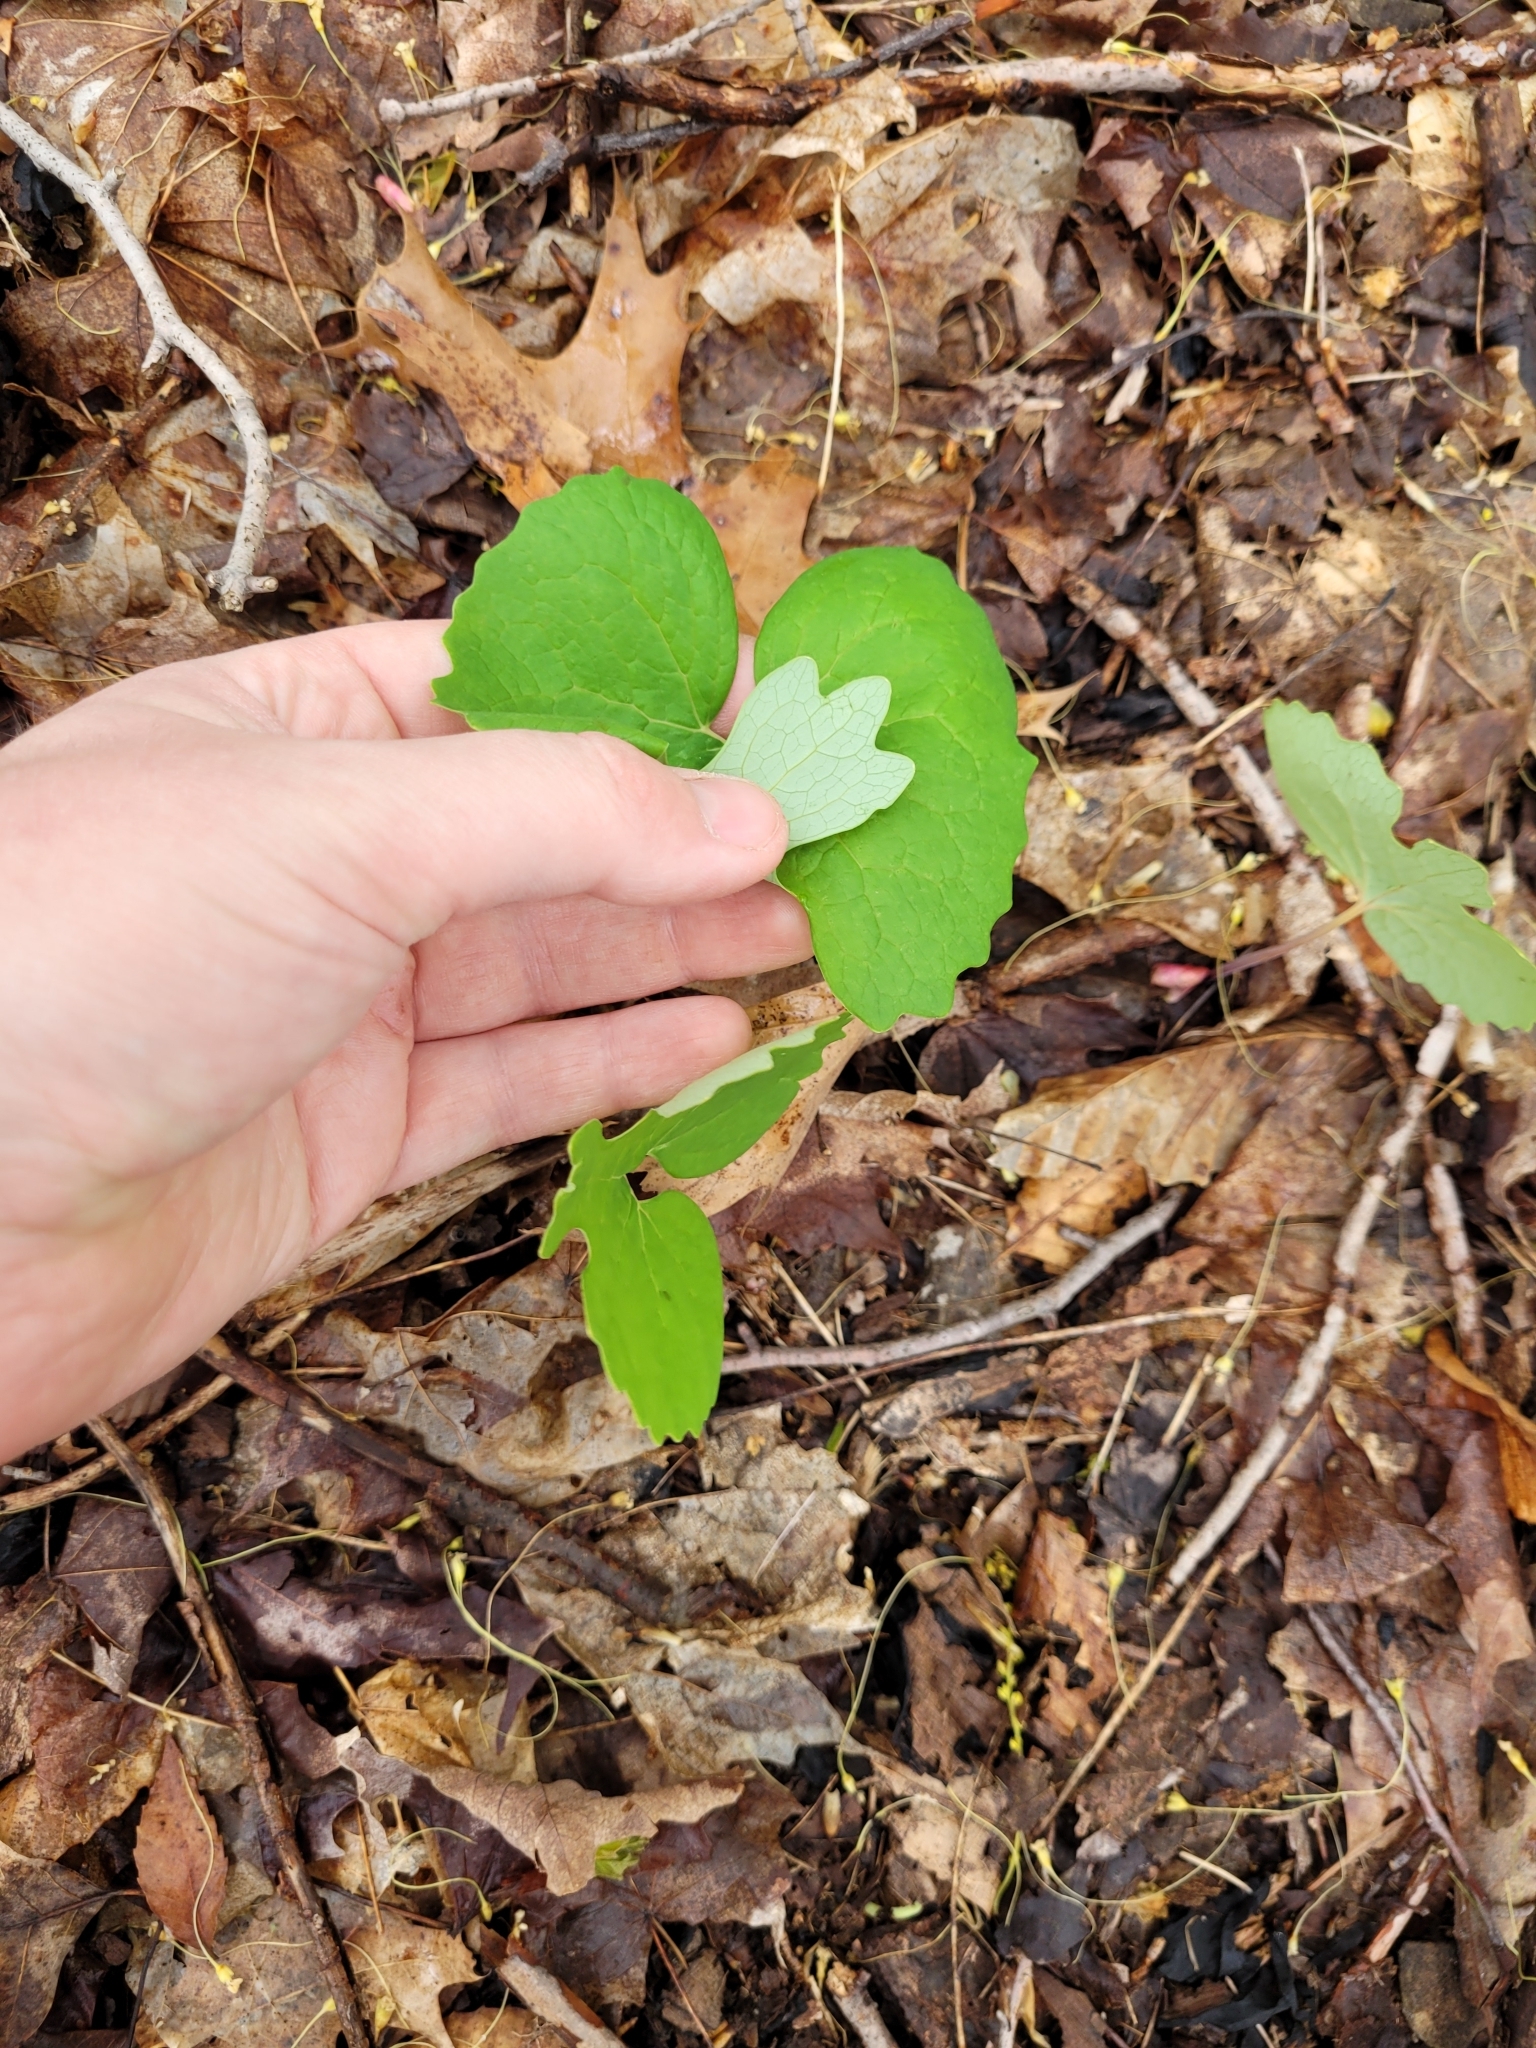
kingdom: Plantae
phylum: Tracheophyta
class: Magnoliopsida
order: Ranunculales
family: Papaveraceae
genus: Sanguinaria
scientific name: Sanguinaria canadensis
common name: Bloodroot
